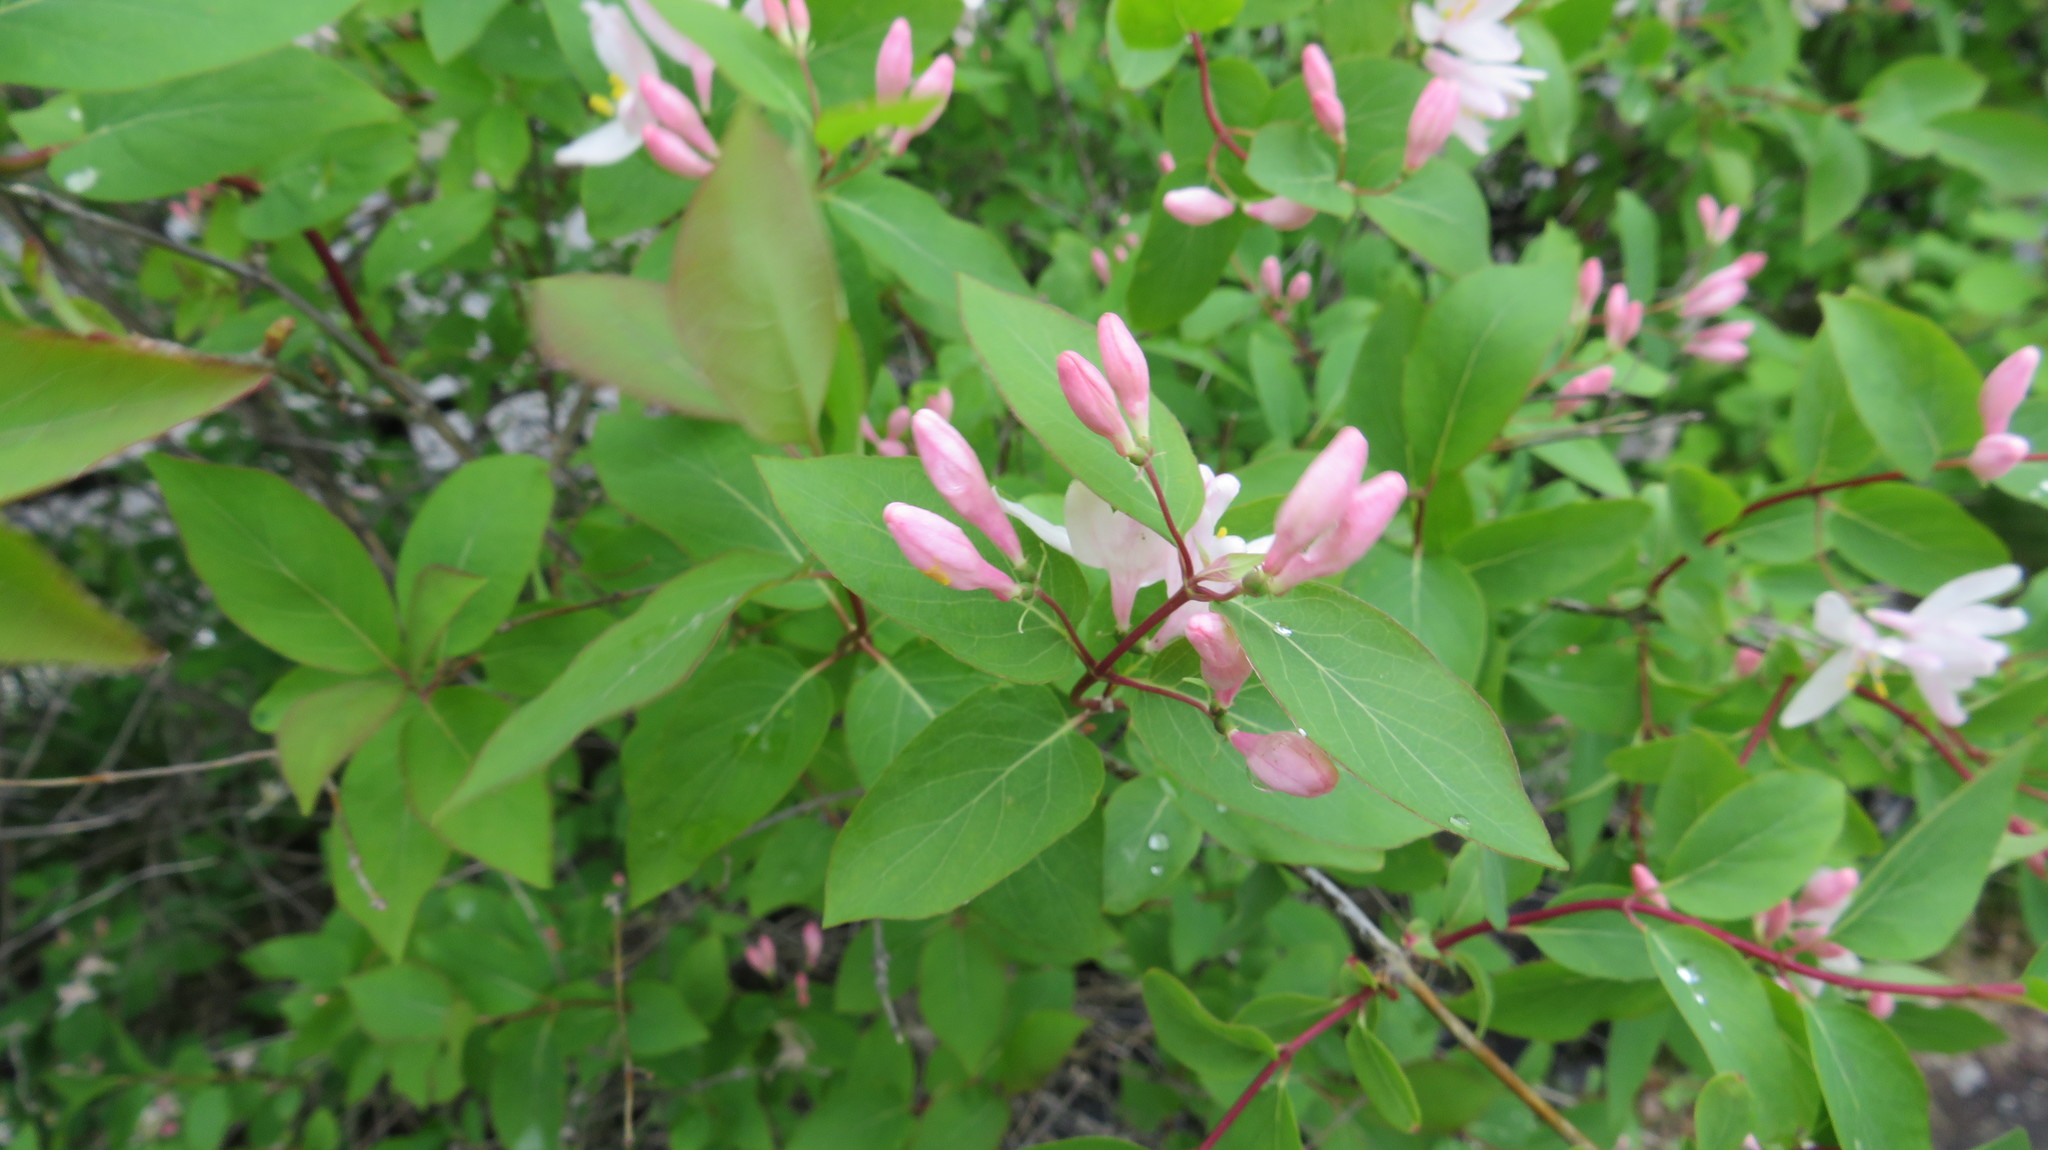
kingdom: Plantae
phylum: Tracheophyta
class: Magnoliopsida
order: Dipsacales
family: Caprifoliaceae
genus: Lonicera
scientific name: Lonicera tatarica
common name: Tatarian honeysuckle
